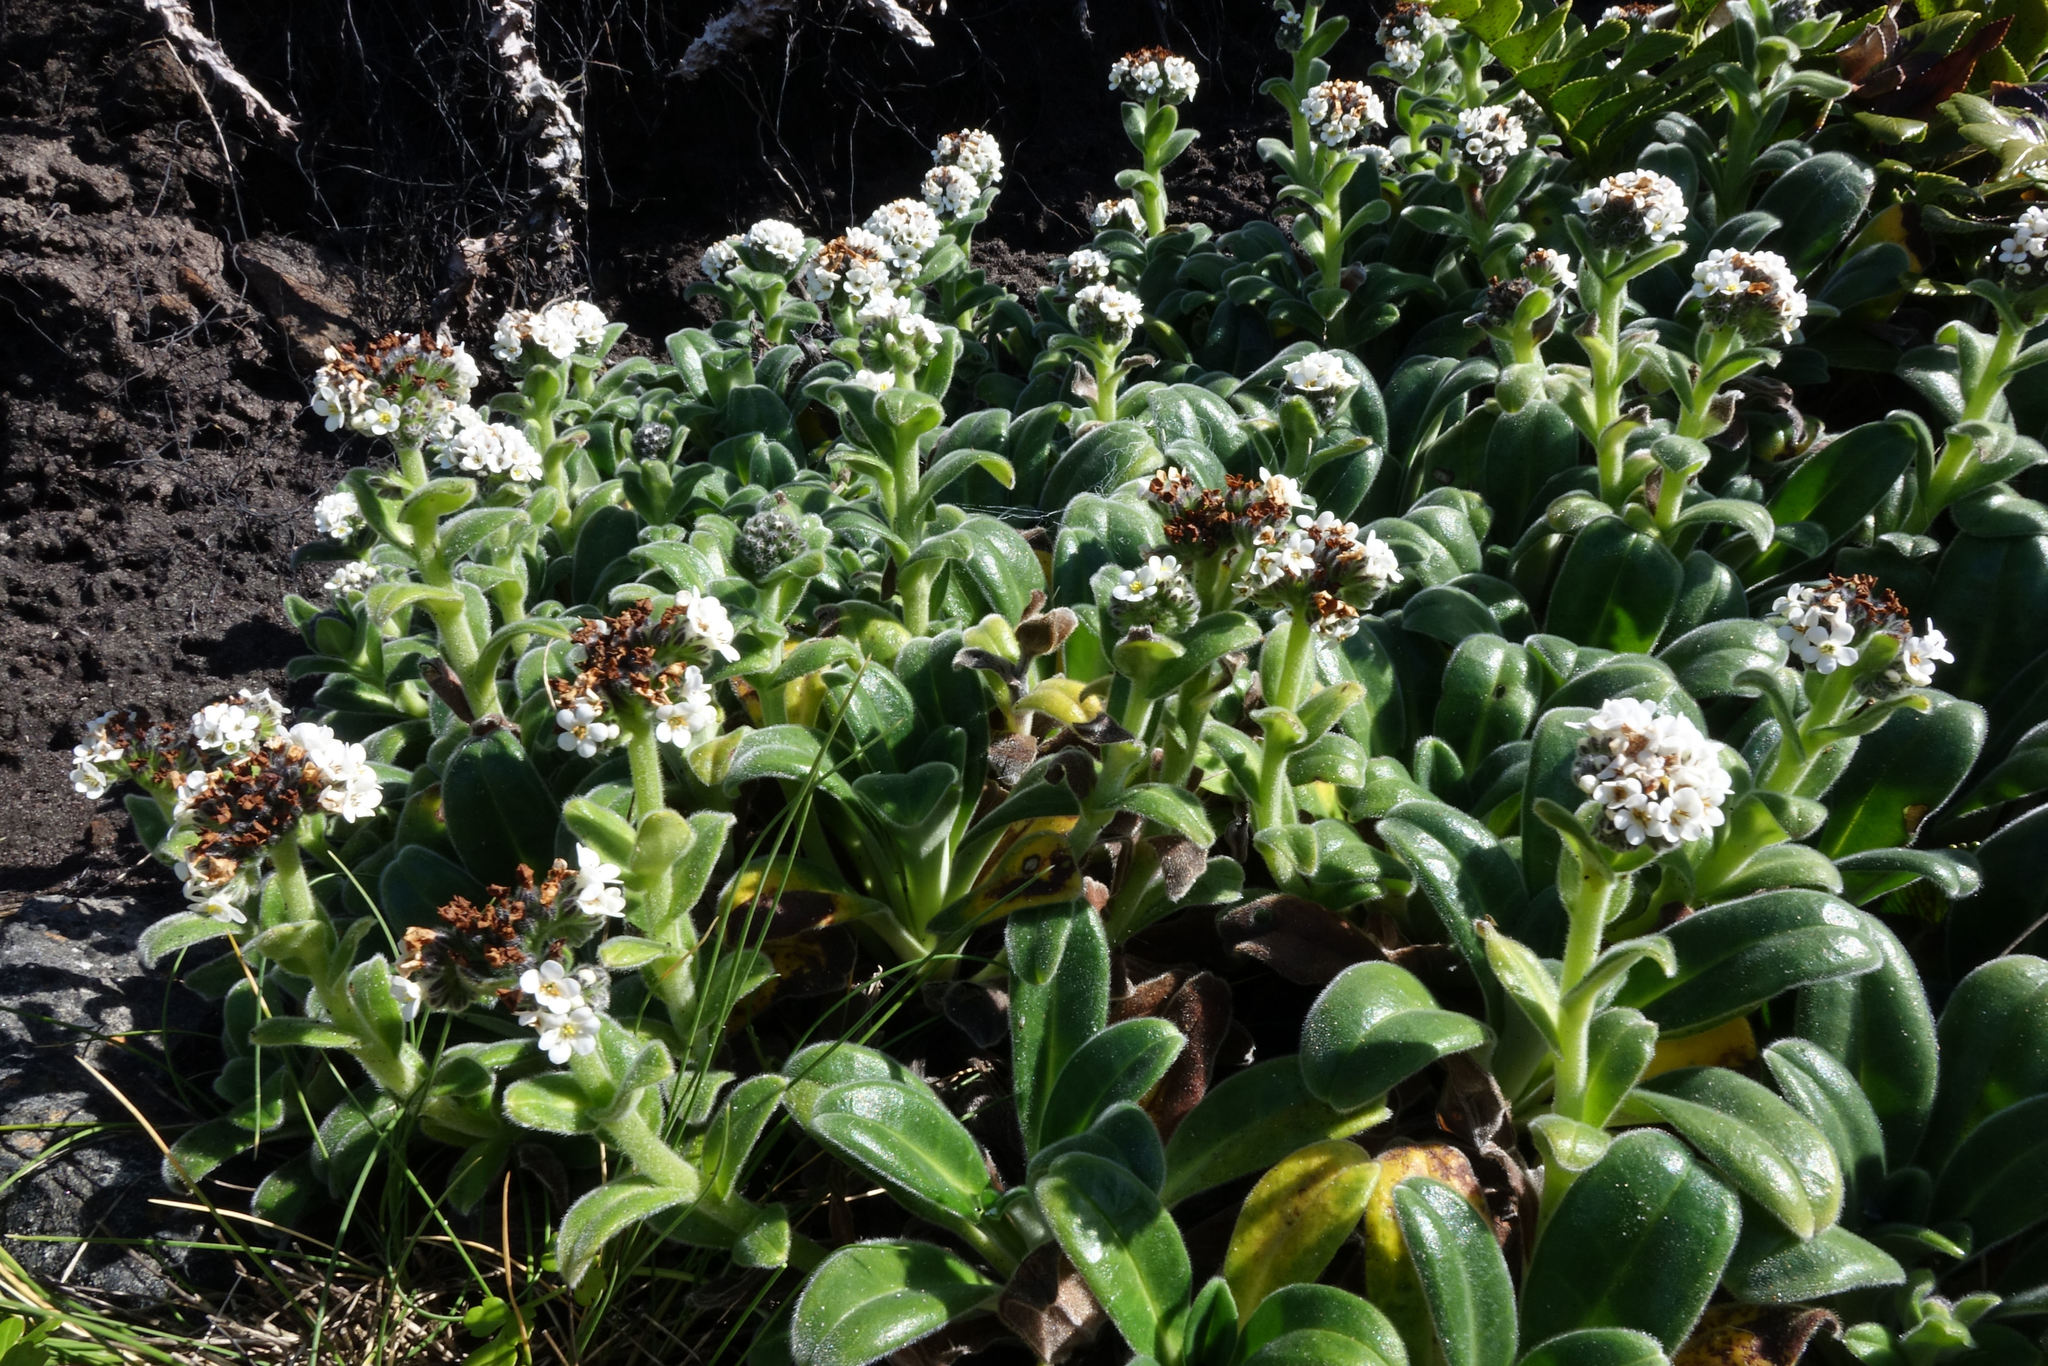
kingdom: Plantae
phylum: Tracheophyta
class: Magnoliopsida
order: Boraginales
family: Boraginaceae
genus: Myosotis
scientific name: Myosotis rakiura
